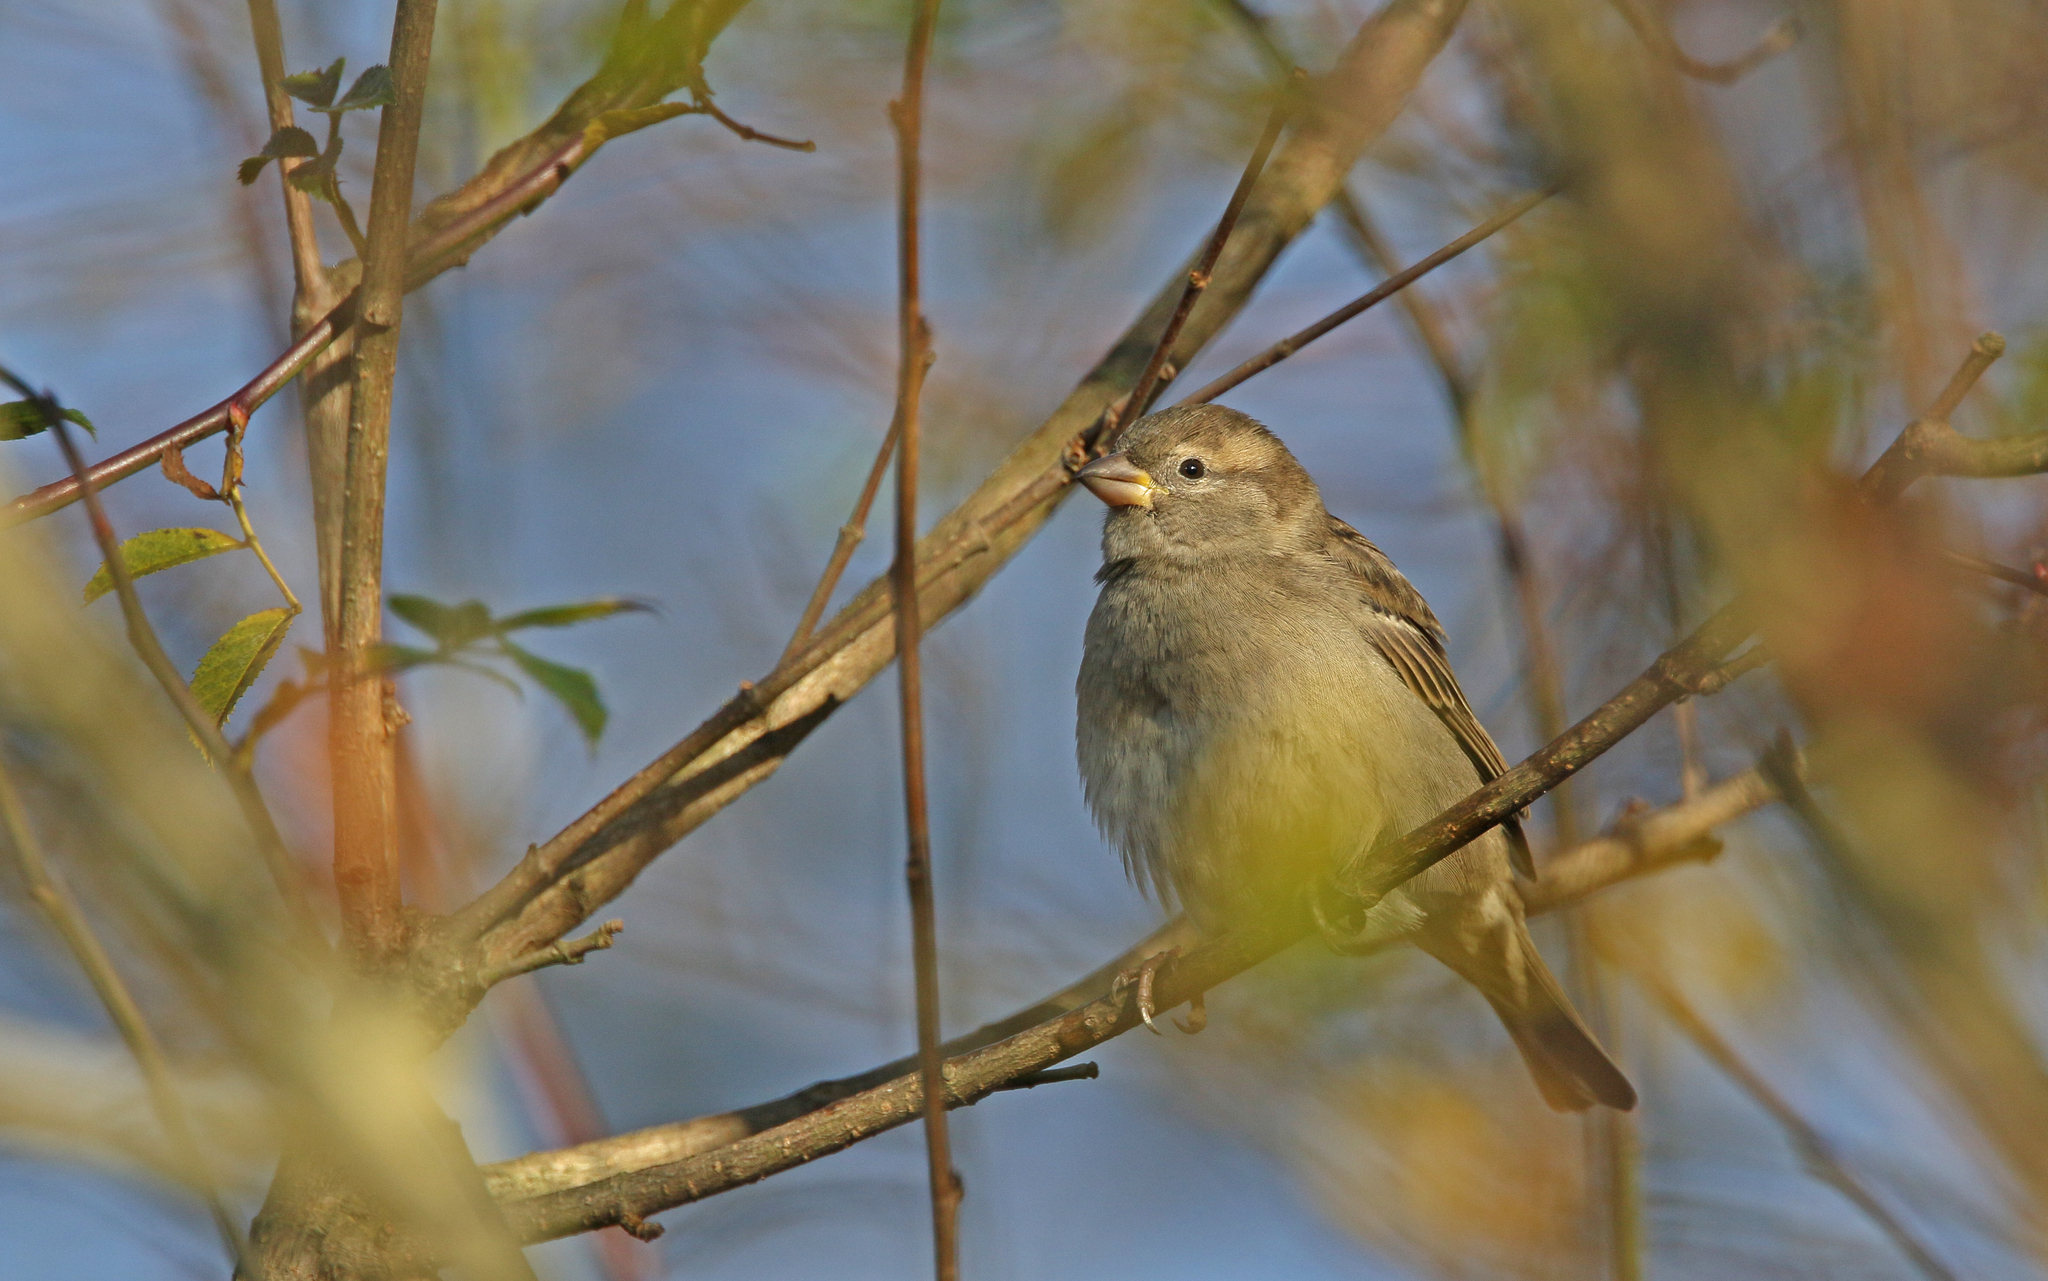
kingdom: Animalia
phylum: Chordata
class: Aves
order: Passeriformes
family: Passeridae
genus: Passer
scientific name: Passer domesticus
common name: House sparrow
